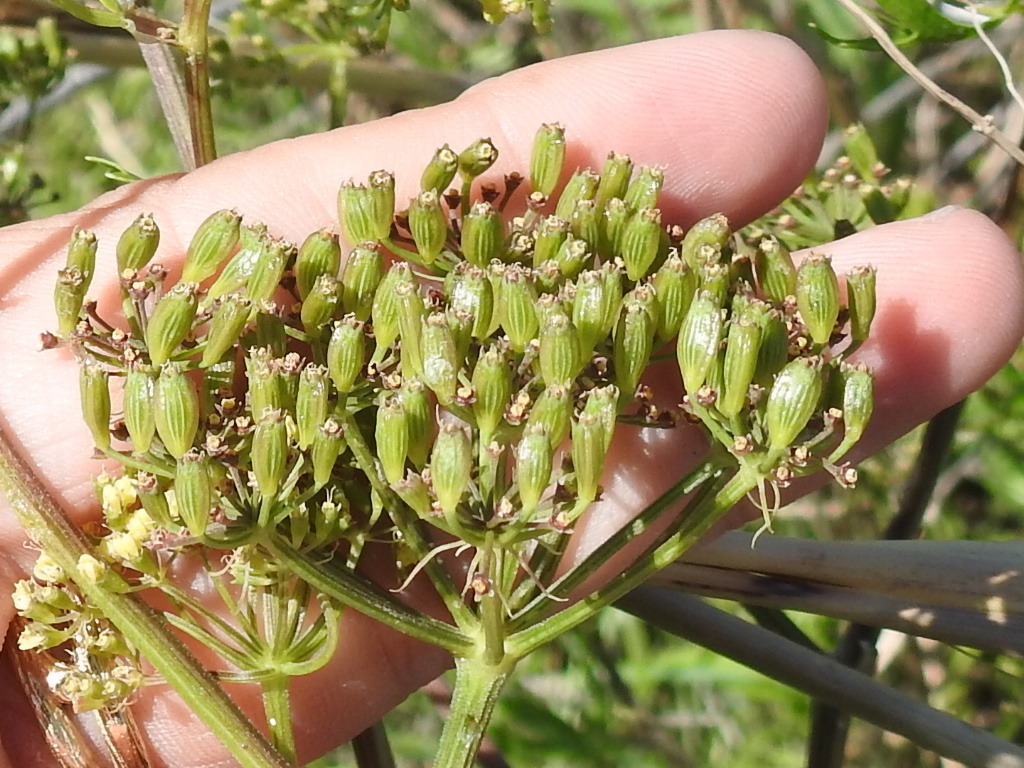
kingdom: Plantae
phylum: Tracheophyta
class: Magnoliopsida
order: Apiales
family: Apiaceae
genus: Polytaenia
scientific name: Polytaenia texana
